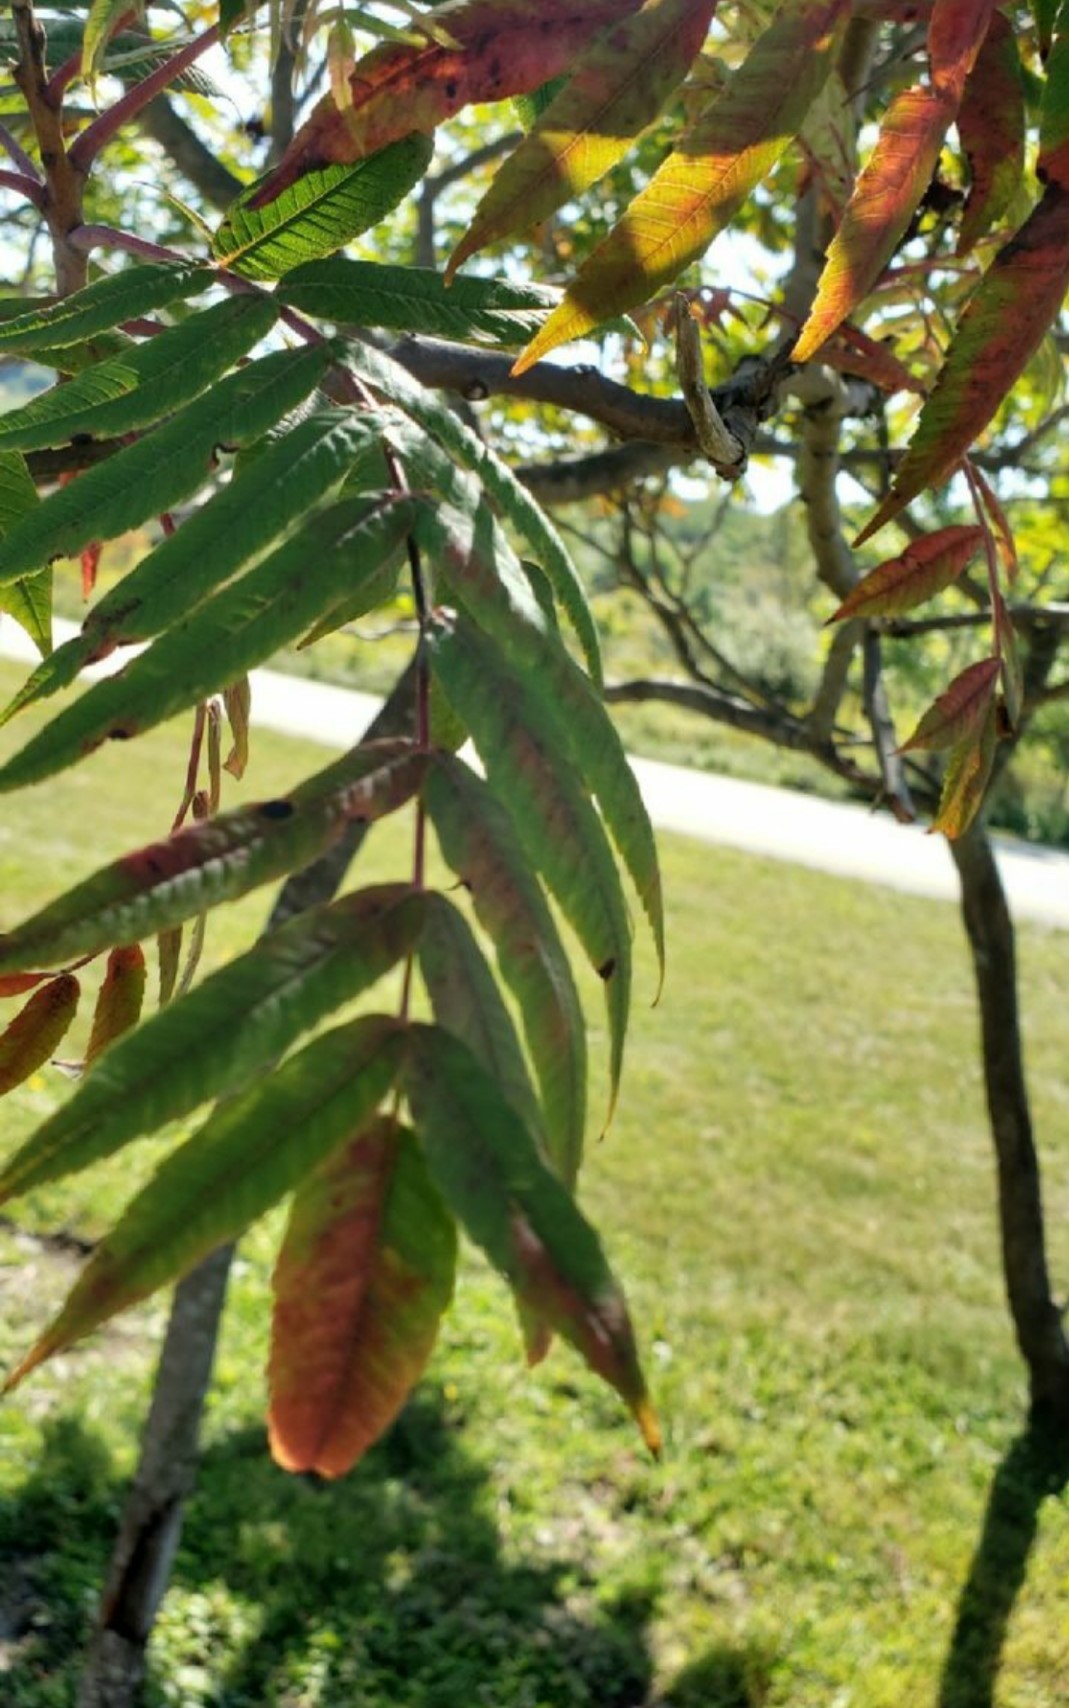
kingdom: Plantae
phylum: Tracheophyta
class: Magnoliopsida
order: Sapindales
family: Anacardiaceae
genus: Rhus
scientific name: Rhus typhina
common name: Staghorn sumac
